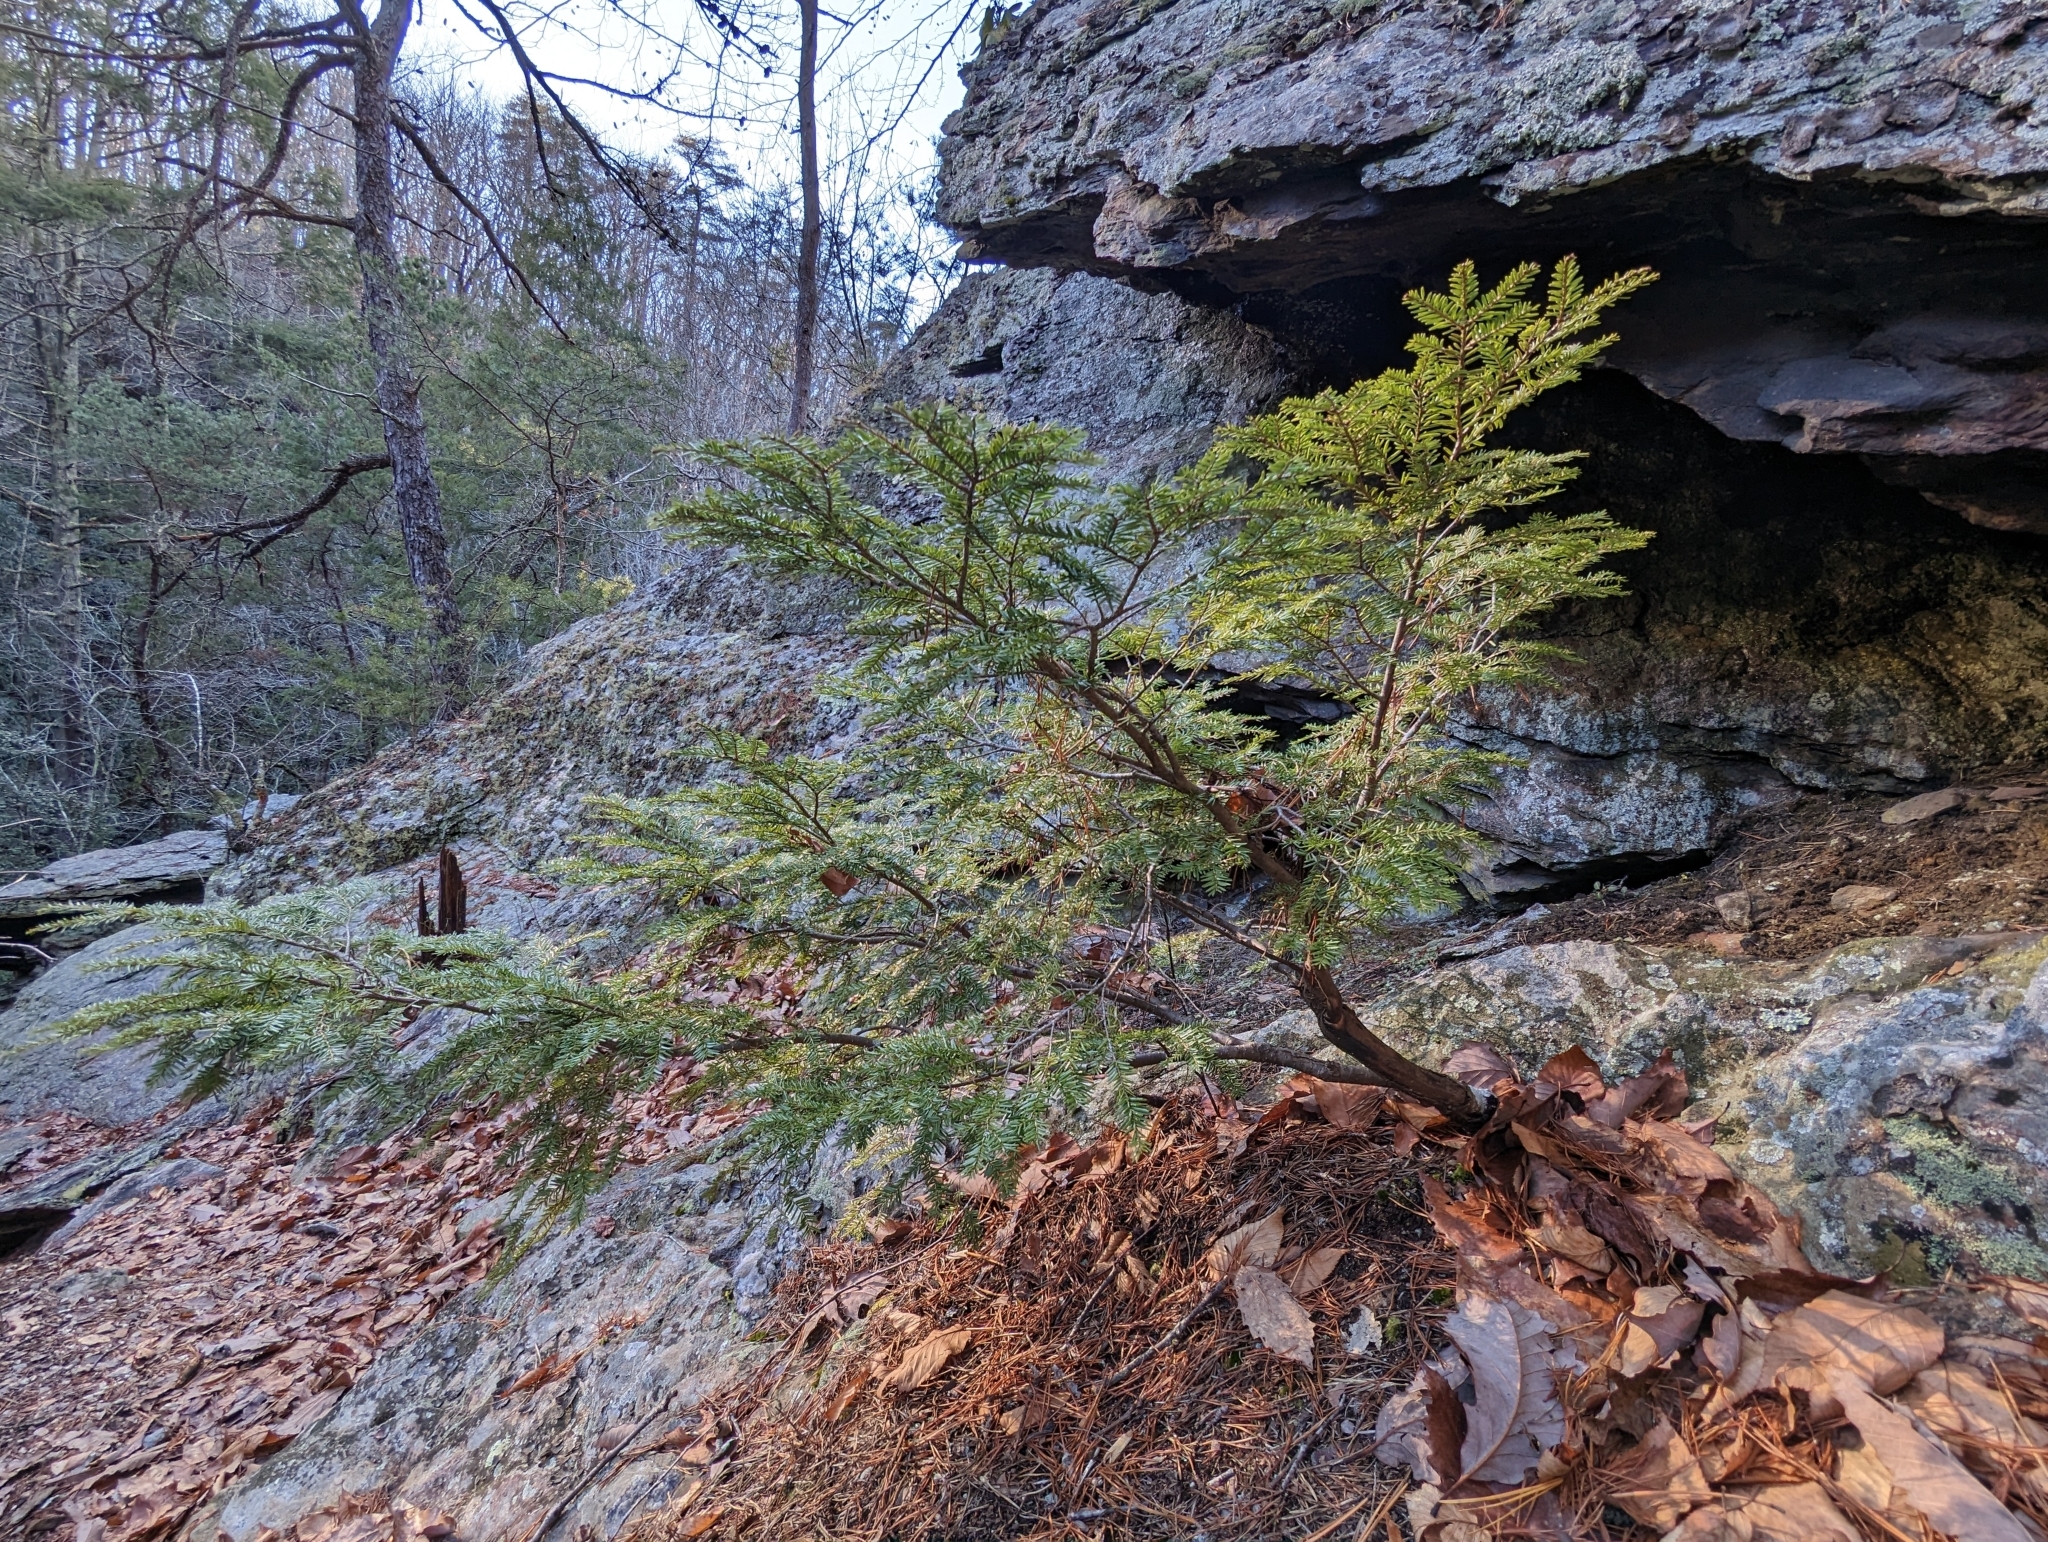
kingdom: Plantae
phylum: Tracheophyta
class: Pinopsida
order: Pinales
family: Pinaceae
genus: Tsuga
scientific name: Tsuga canadensis
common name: Eastern hemlock
